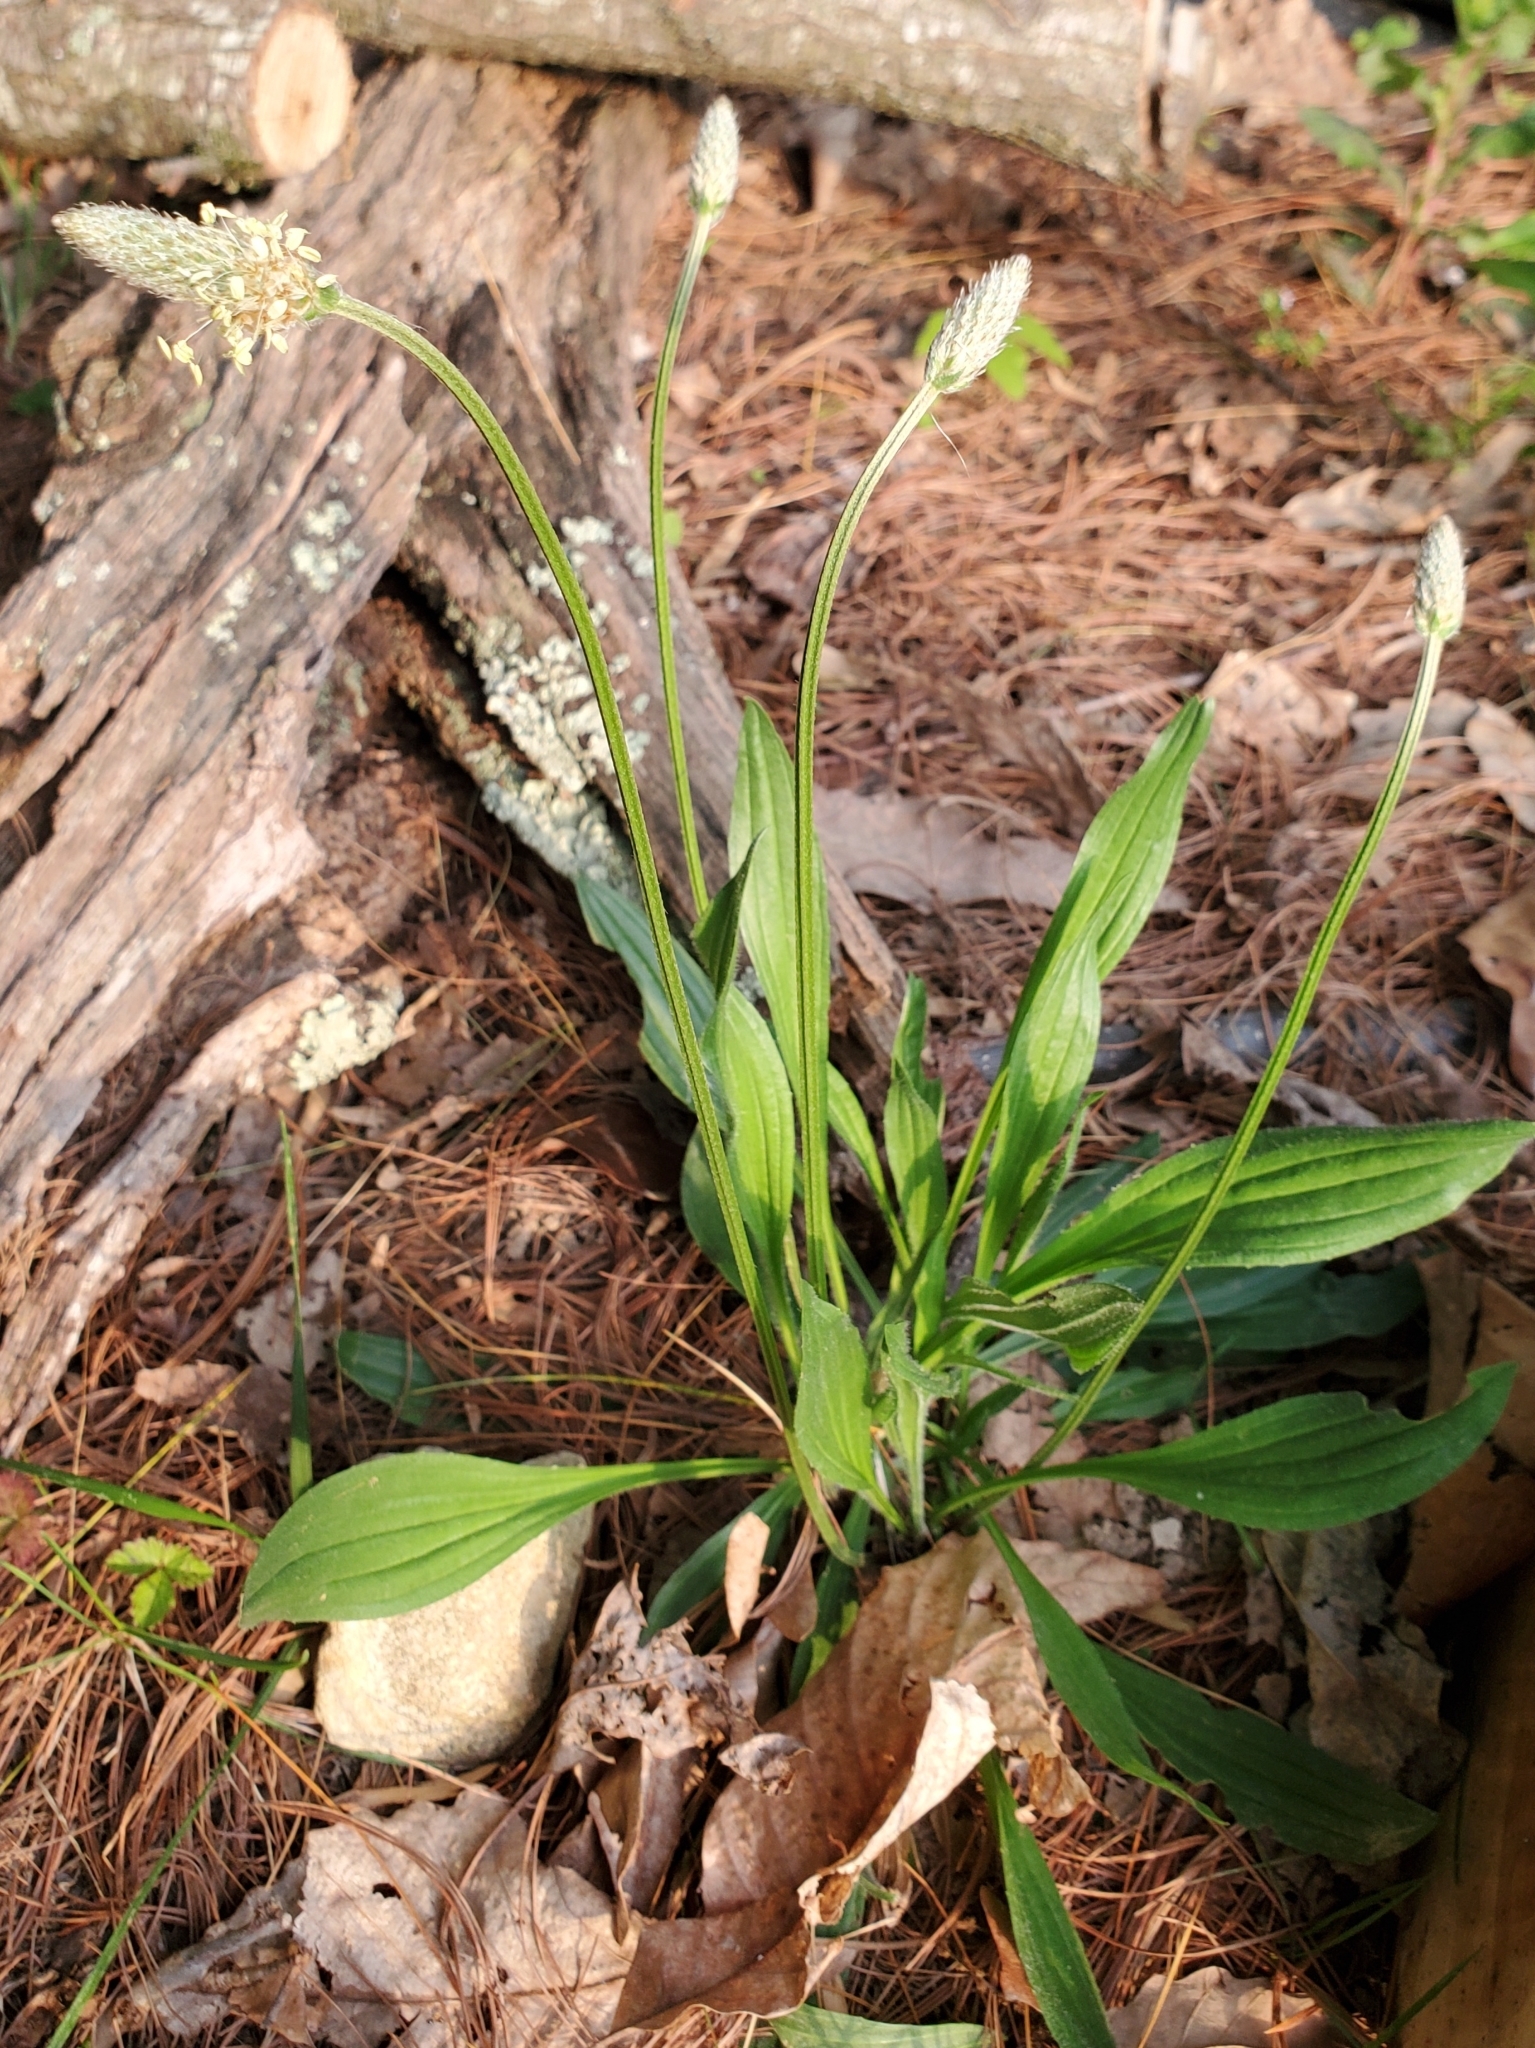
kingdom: Plantae
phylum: Tracheophyta
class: Magnoliopsida
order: Lamiales
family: Plantaginaceae
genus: Plantago
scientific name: Plantago lanceolata
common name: Ribwort plantain
